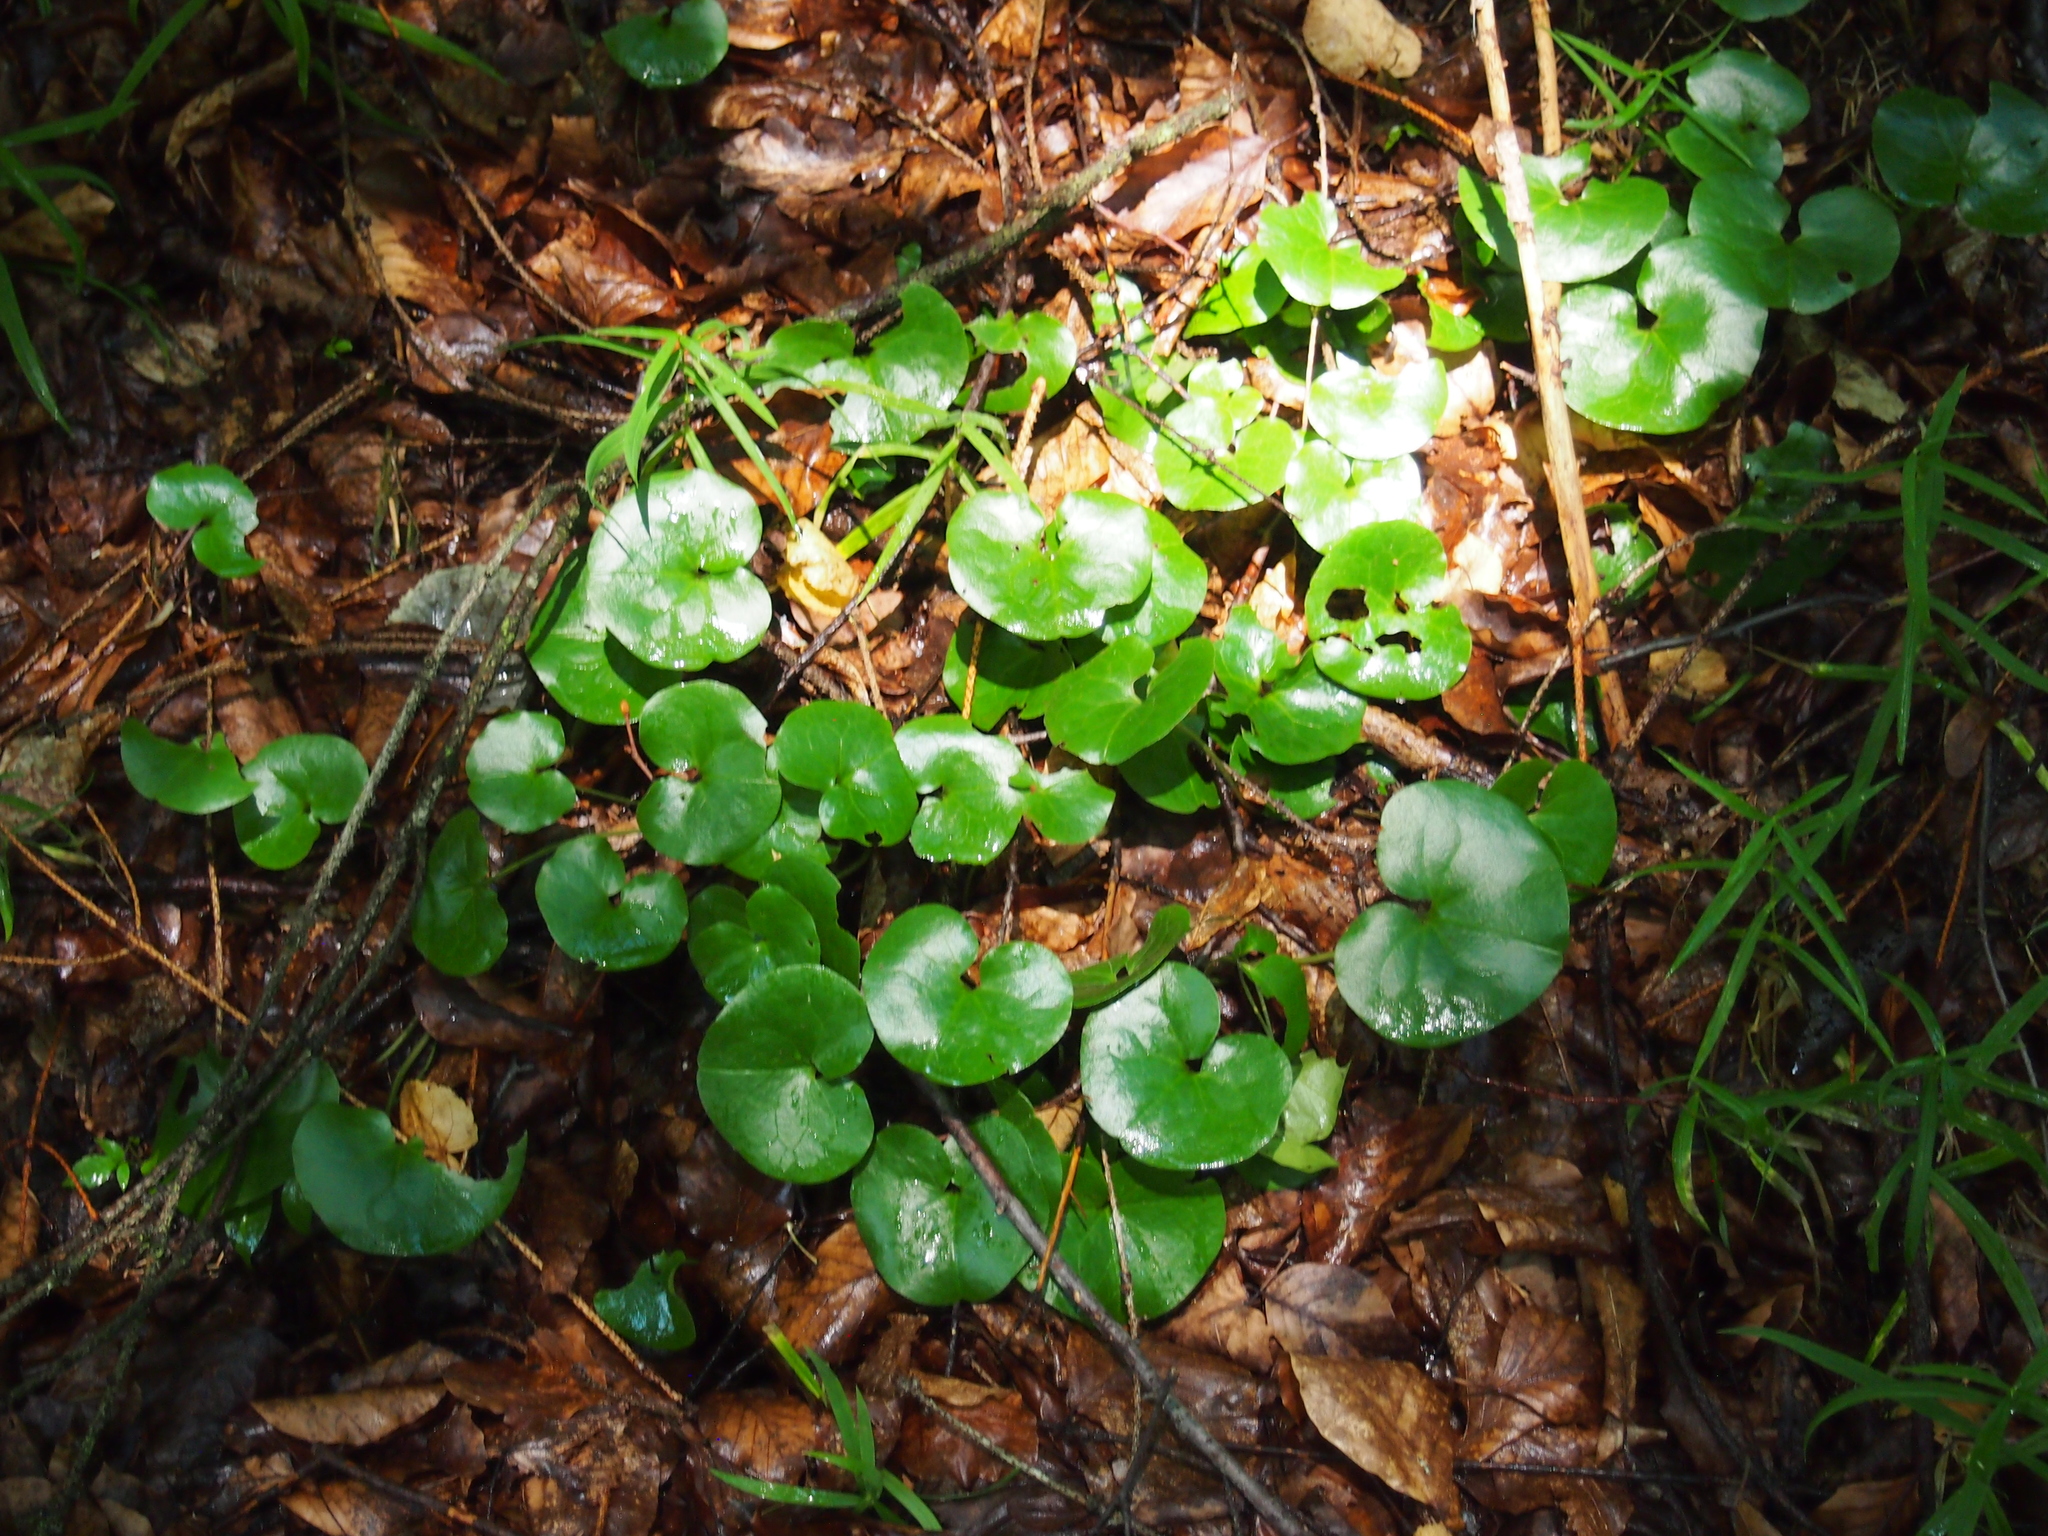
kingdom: Plantae
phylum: Tracheophyta
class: Magnoliopsida
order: Piperales
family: Aristolochiaceae
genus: Asarum
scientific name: Asarum europaeum
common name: Asarabacca
